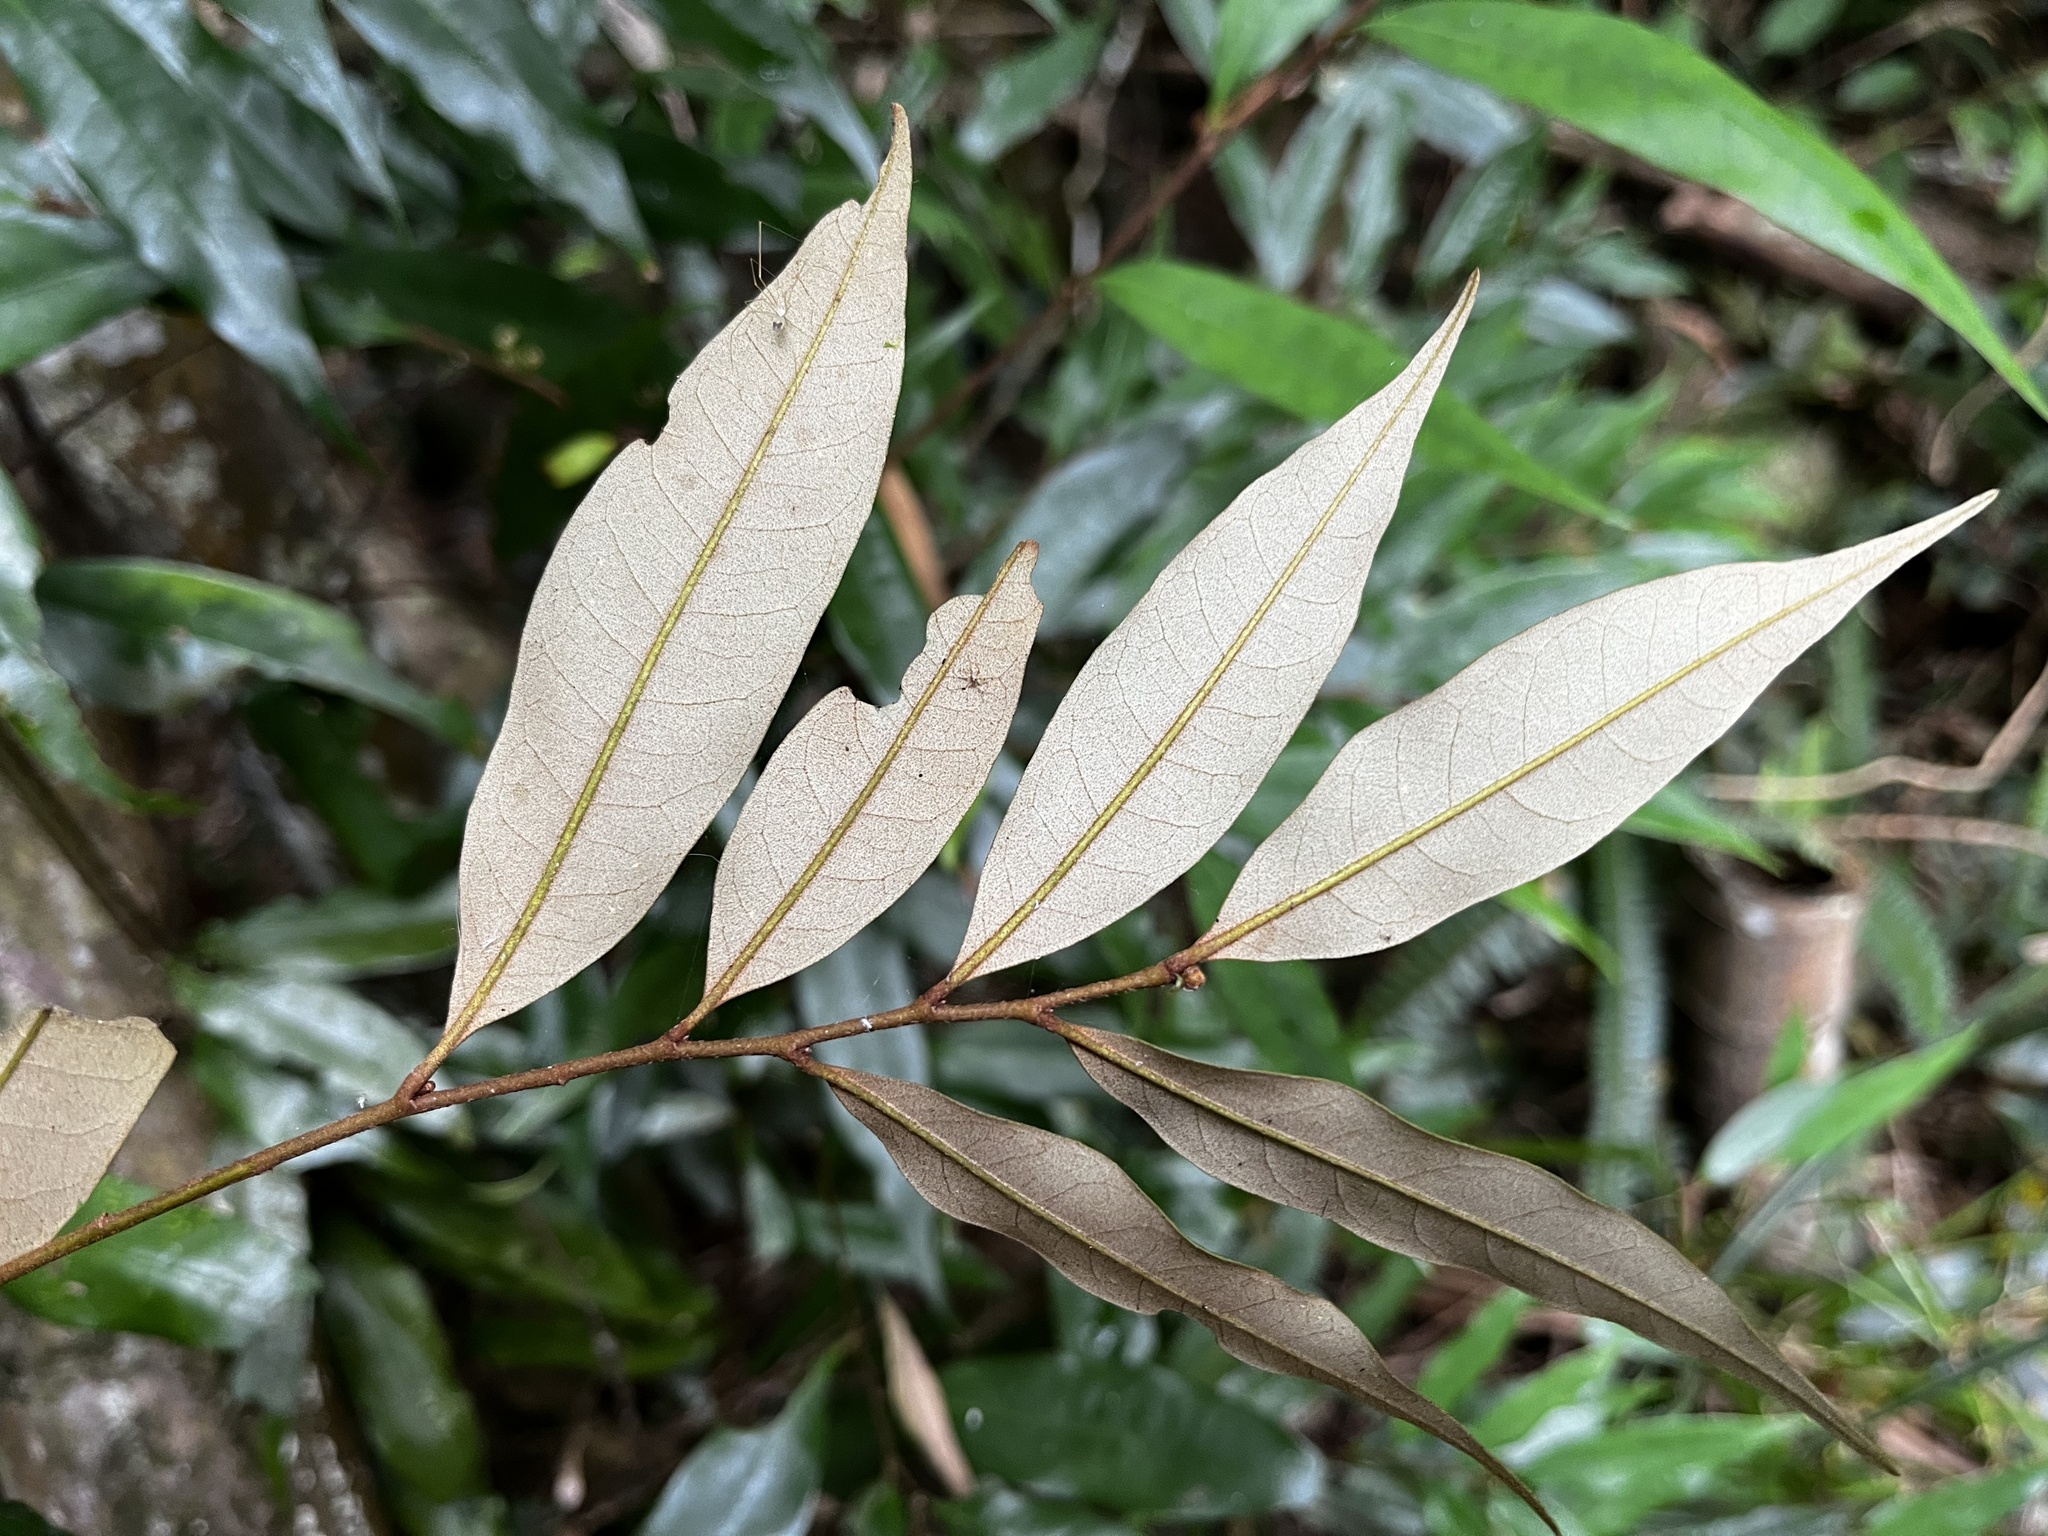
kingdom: Plantae
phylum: Tracheophyta
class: Magnoliopsida
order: Fagales
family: Fagaceae
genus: Castanopsis
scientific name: Castanopsis fargesii
